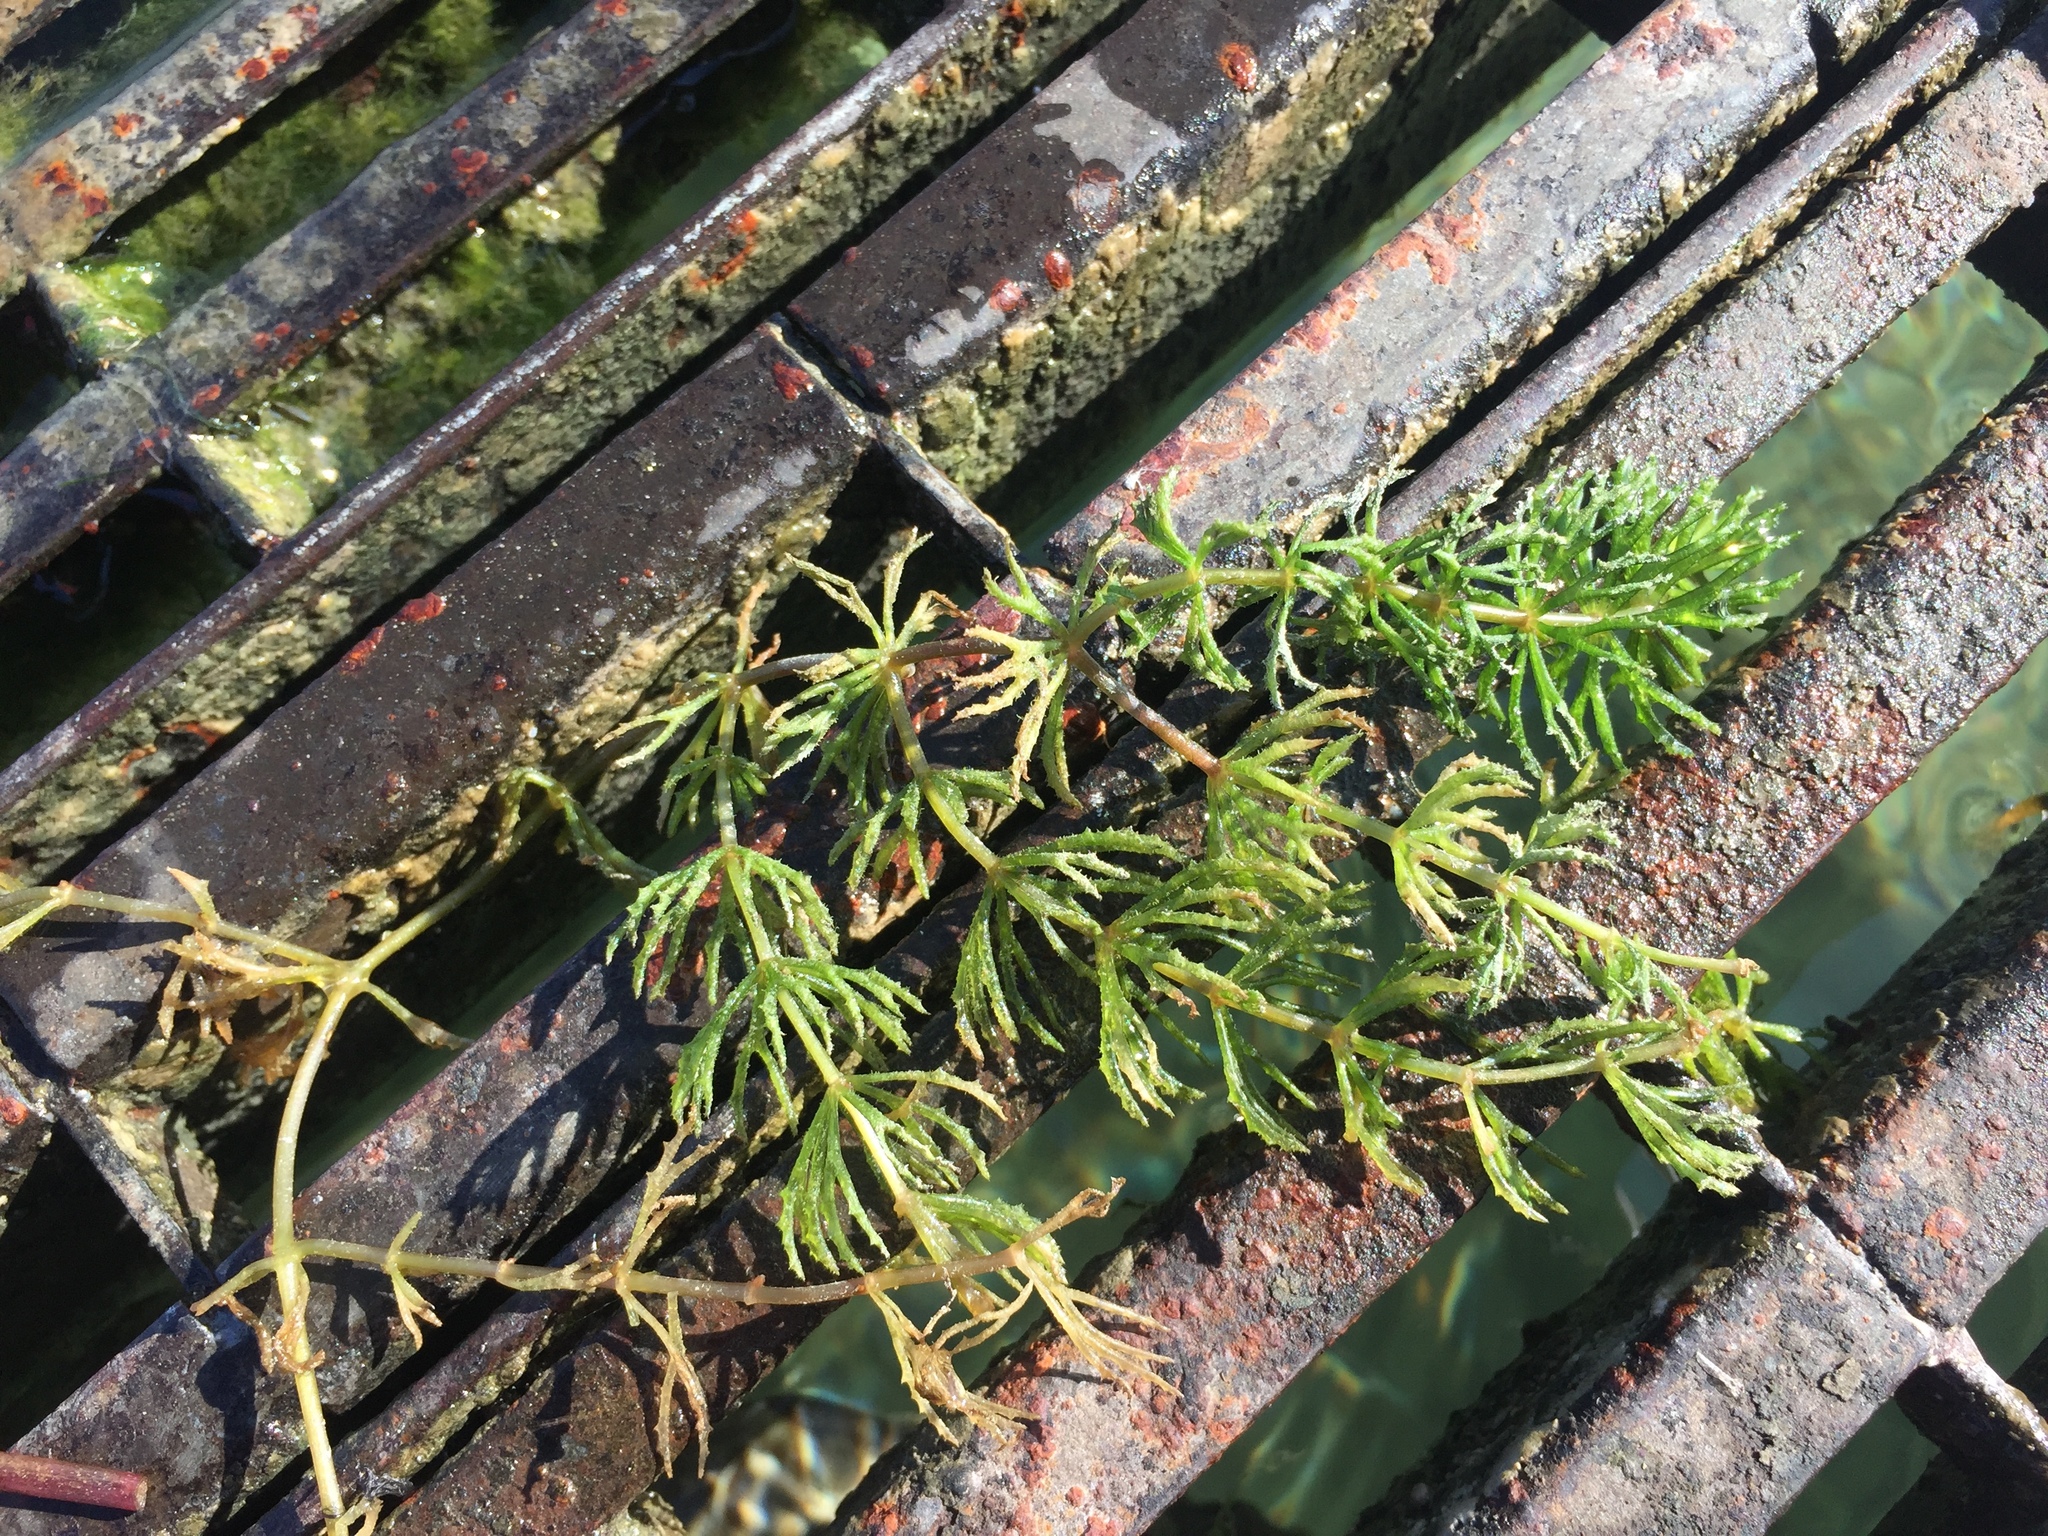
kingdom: Plantae
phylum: Tracheophyta
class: Magnoliopsida
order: Ceratophyllales
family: Ceratophyllaceae
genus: Ceratophyllum
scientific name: Ceratophyllum demersum
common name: Rigid hornwort
